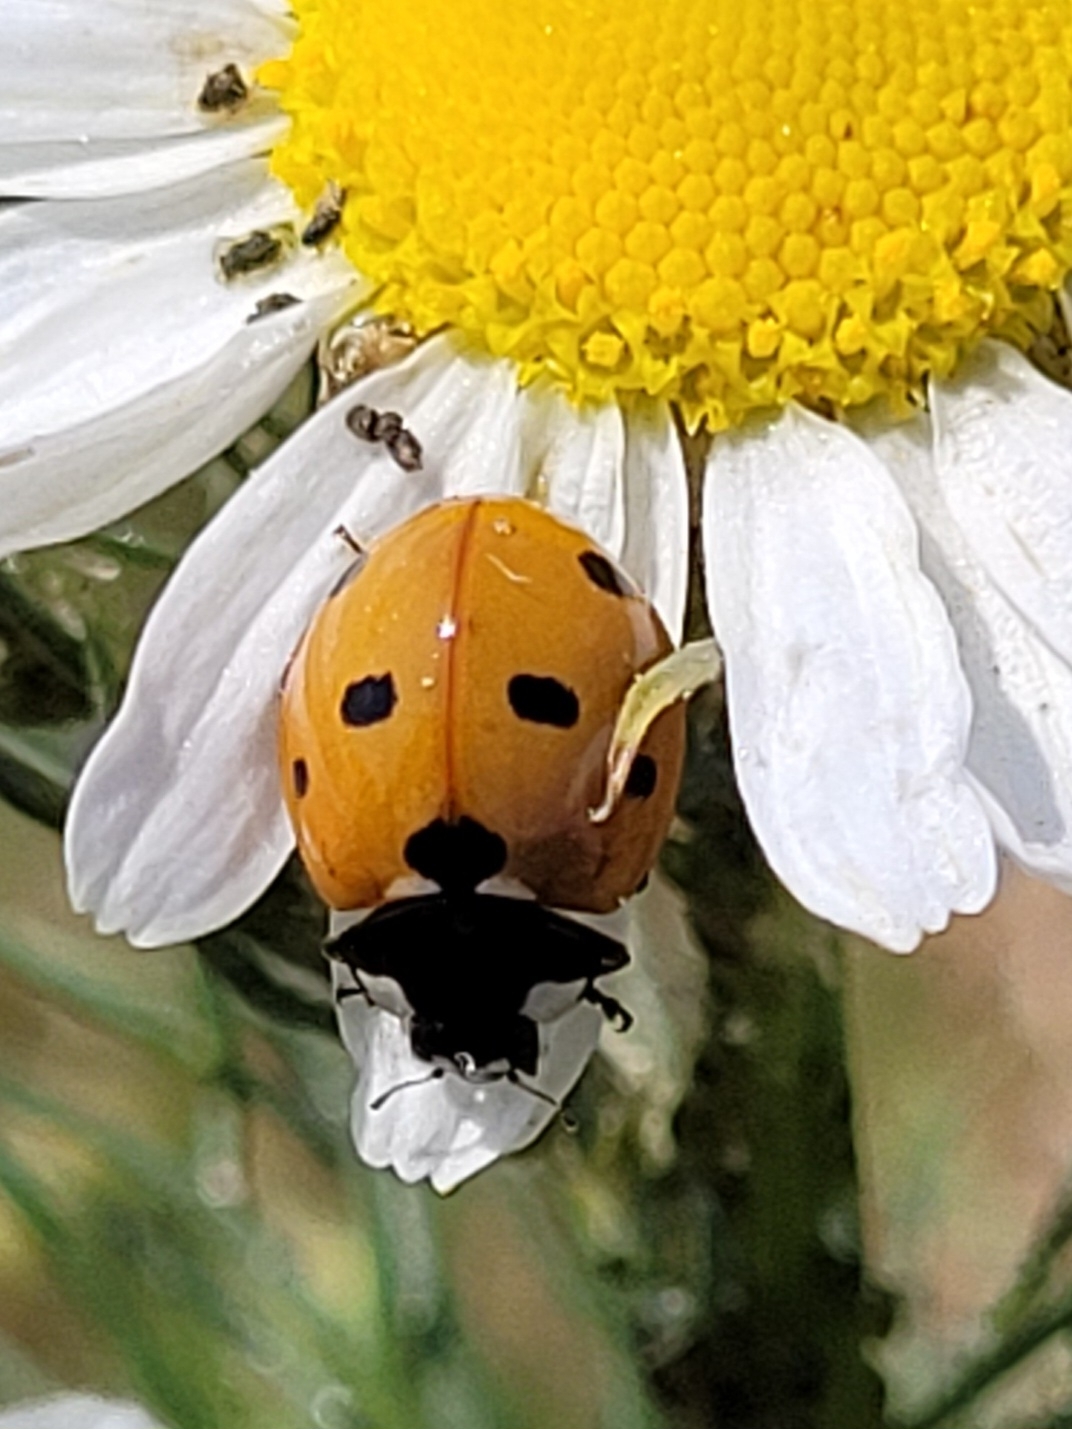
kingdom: Animalia
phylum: Arthropoda
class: Insecta
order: Coleoptera
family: Coccinellidae
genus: Coccinella
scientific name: Coccinella septempunctata
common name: Sevenspotted lady beetle
